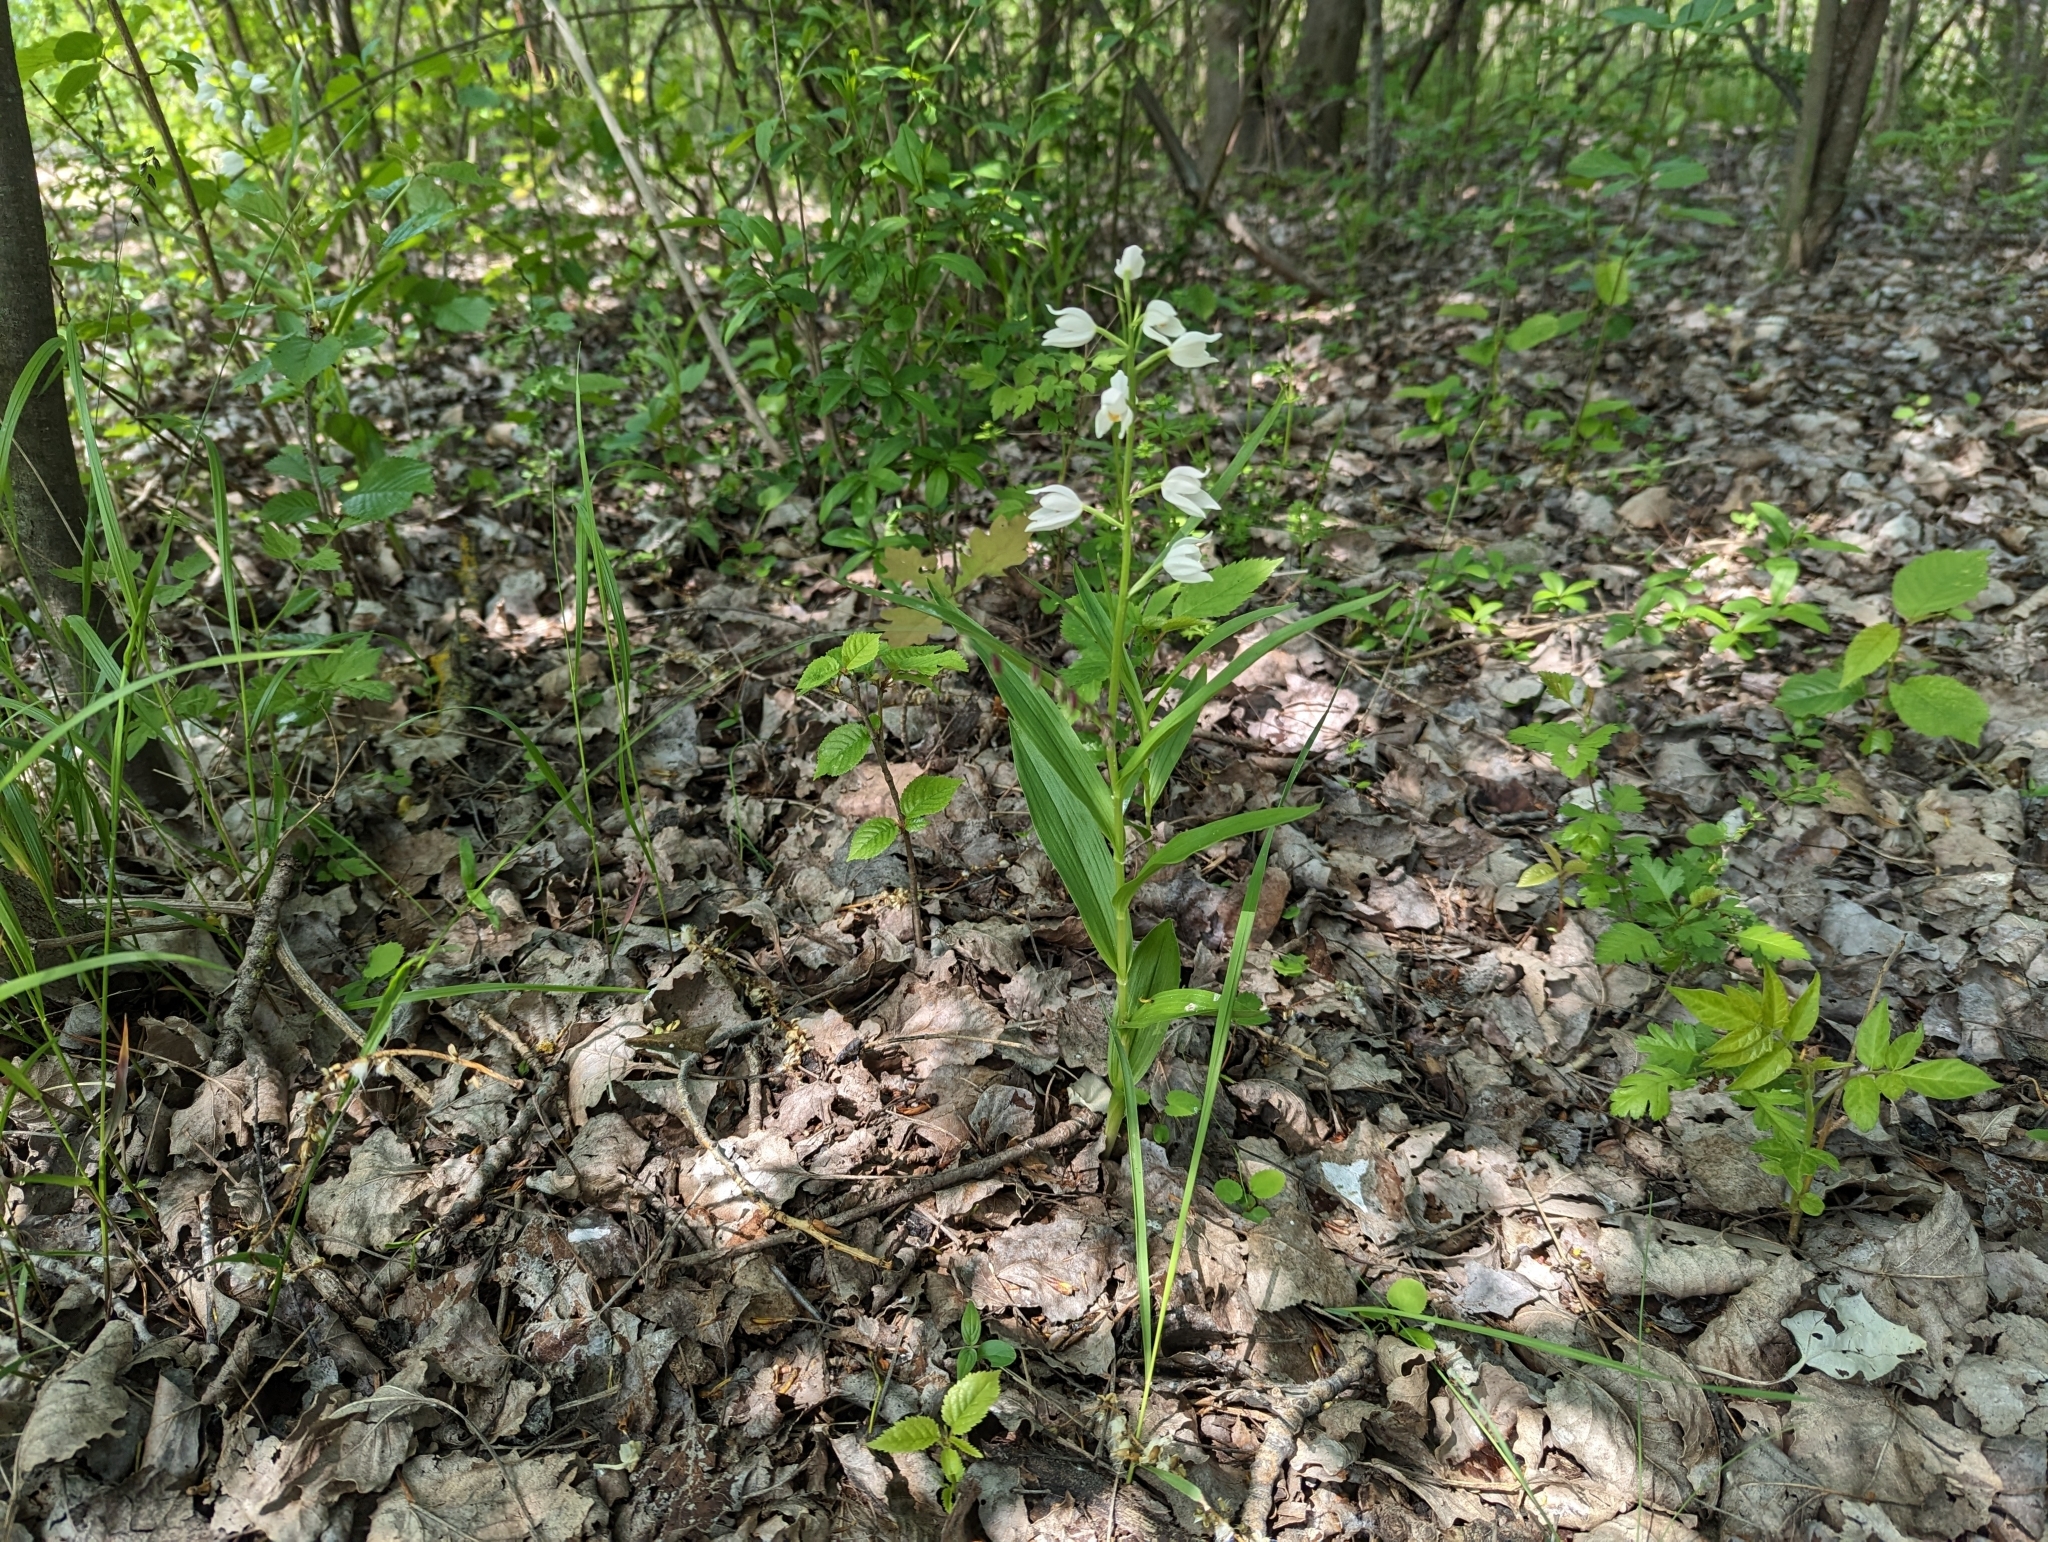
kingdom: Plantae
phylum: Tracheophyta
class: Liliopsida
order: Asparagales
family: Orchidaceae
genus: Cephalanthera
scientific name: Cephalanthera longifolia
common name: Narrow-leaved helleborine
